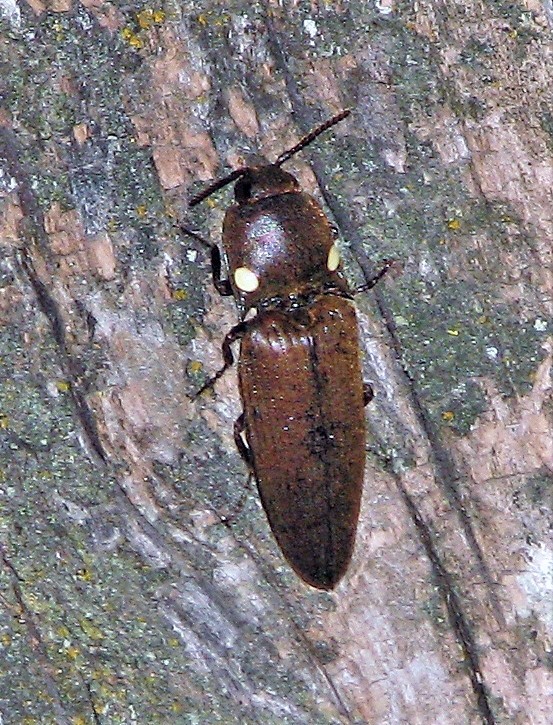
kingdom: Animalia
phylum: Arthropoda
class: Insecta
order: Coleoptera
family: Elateridae
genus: Pyrophorus
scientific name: Pyrophorus
